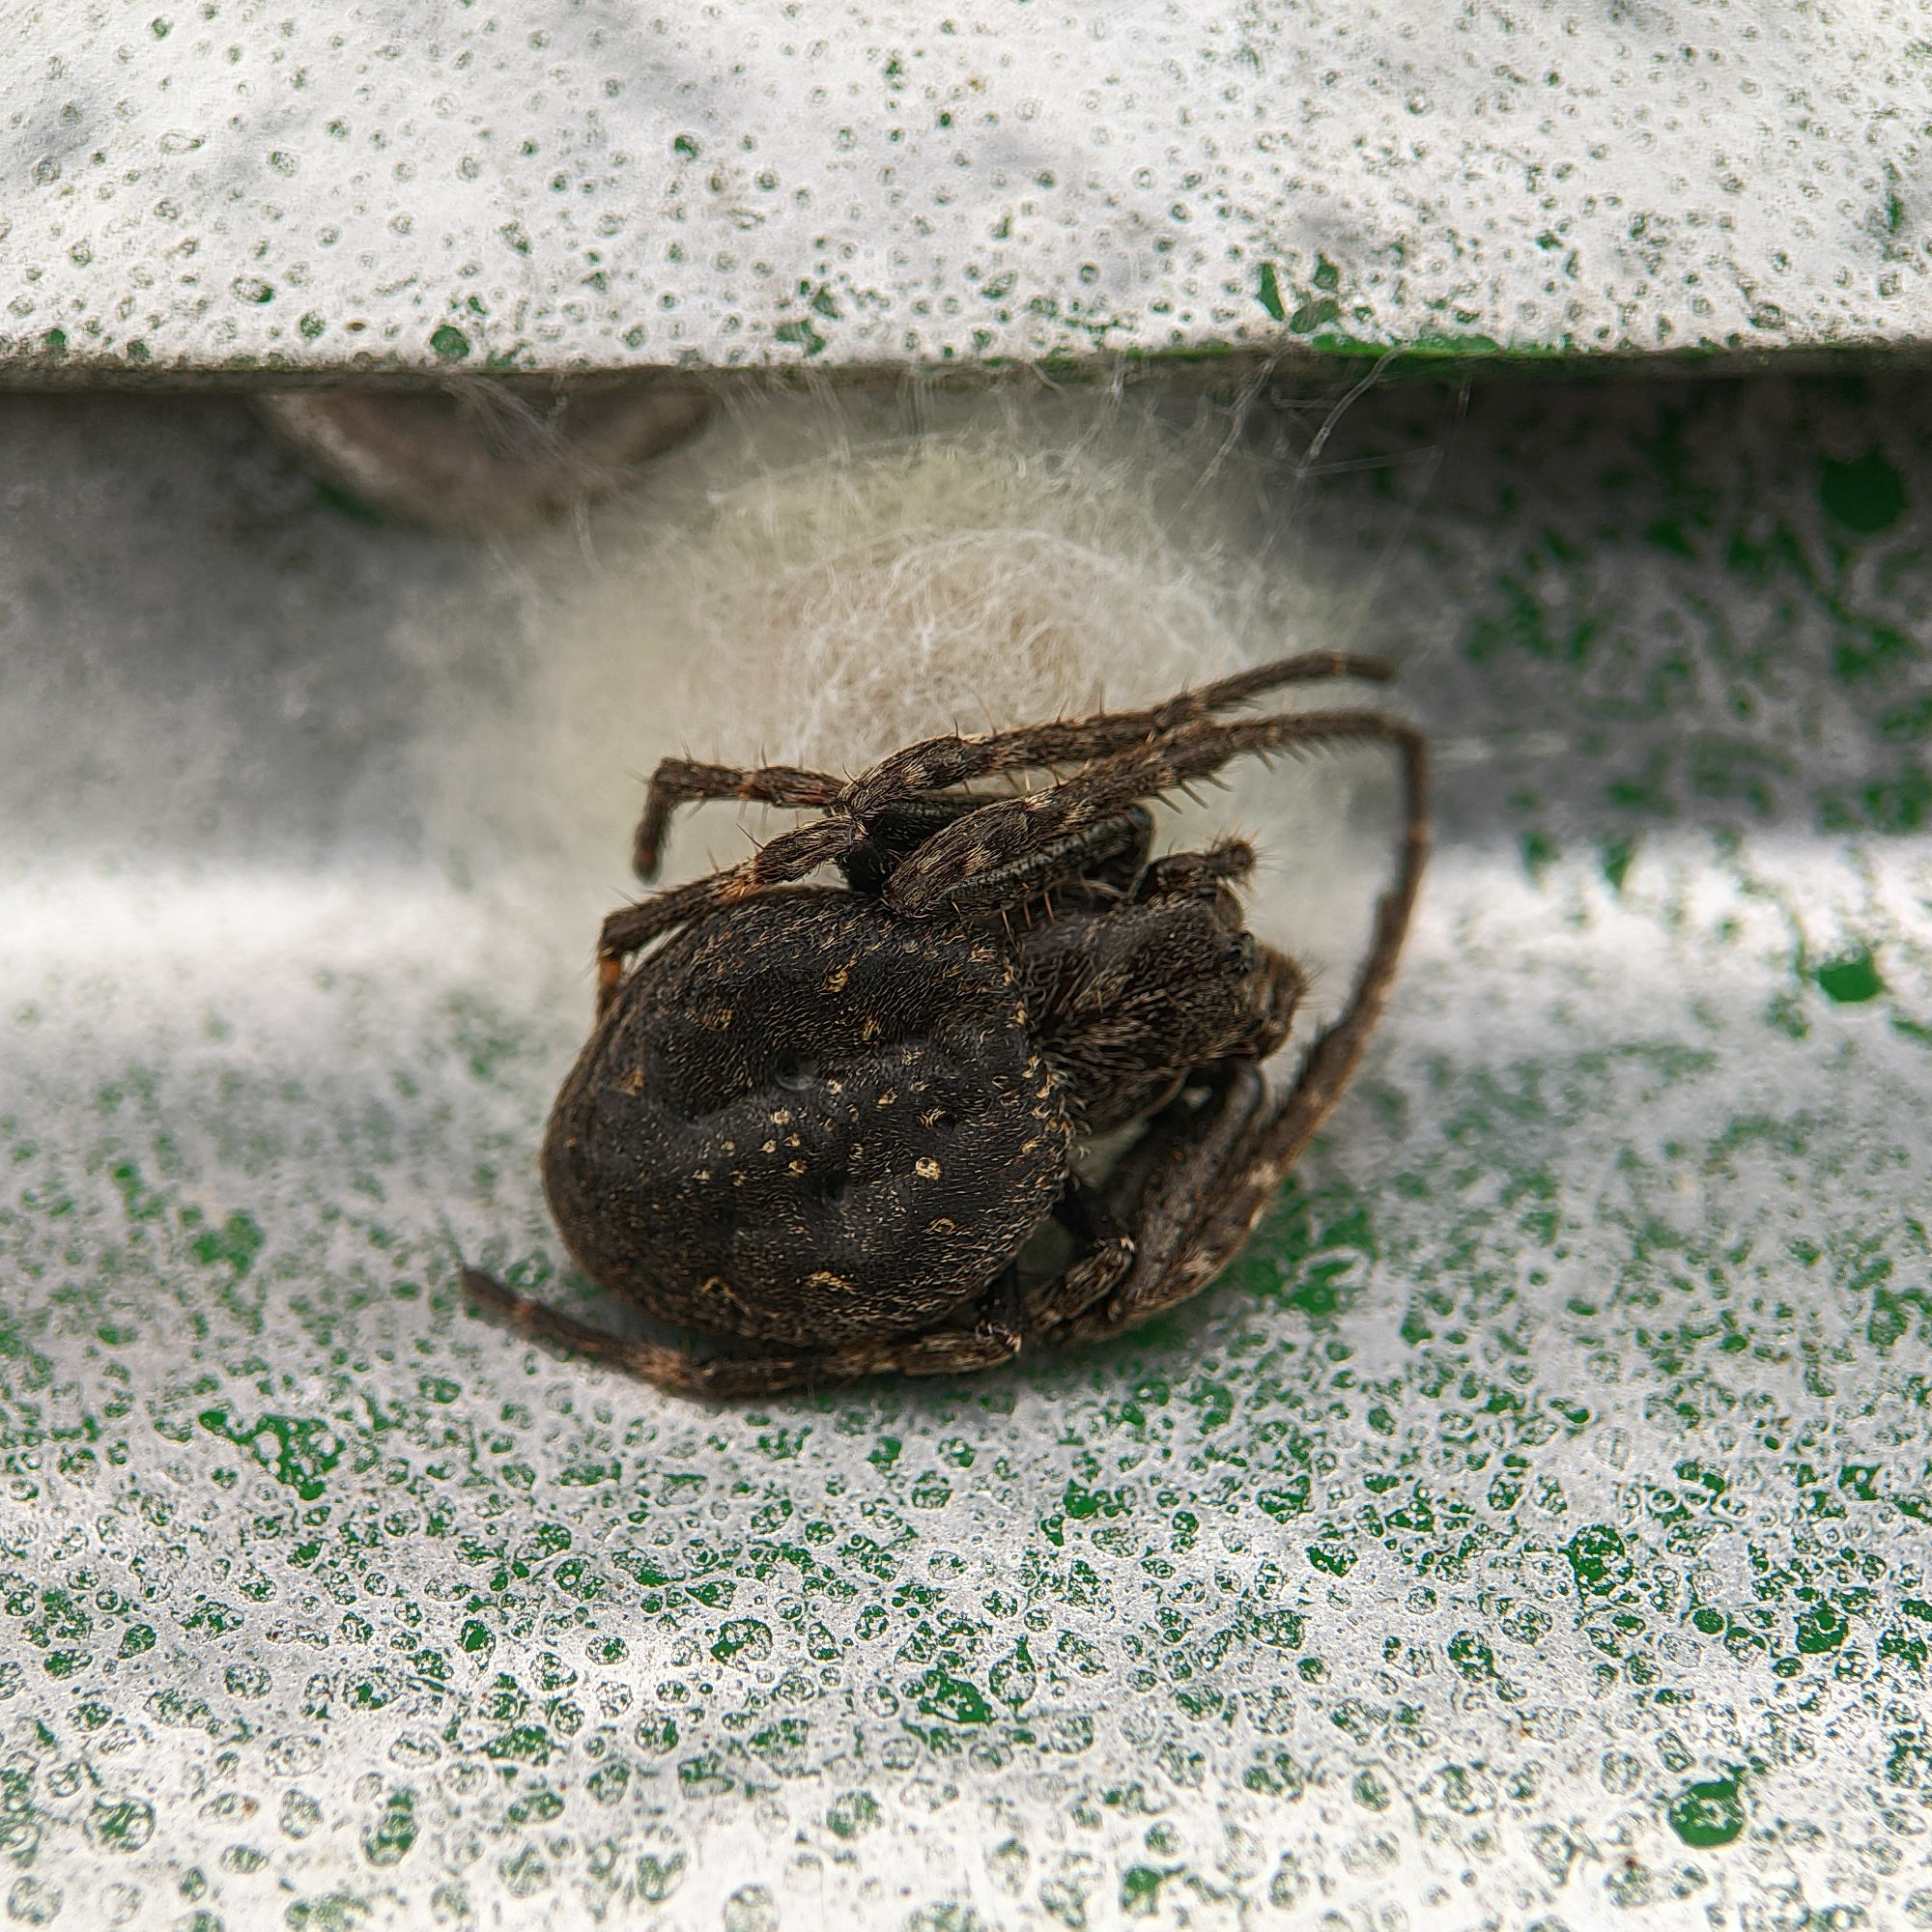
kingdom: Animalia
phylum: Arthropoda
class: Arachnida
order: Araneae
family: Araneidae
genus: Nuctenea
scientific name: Nuctenea umbratica
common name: Toad spider
